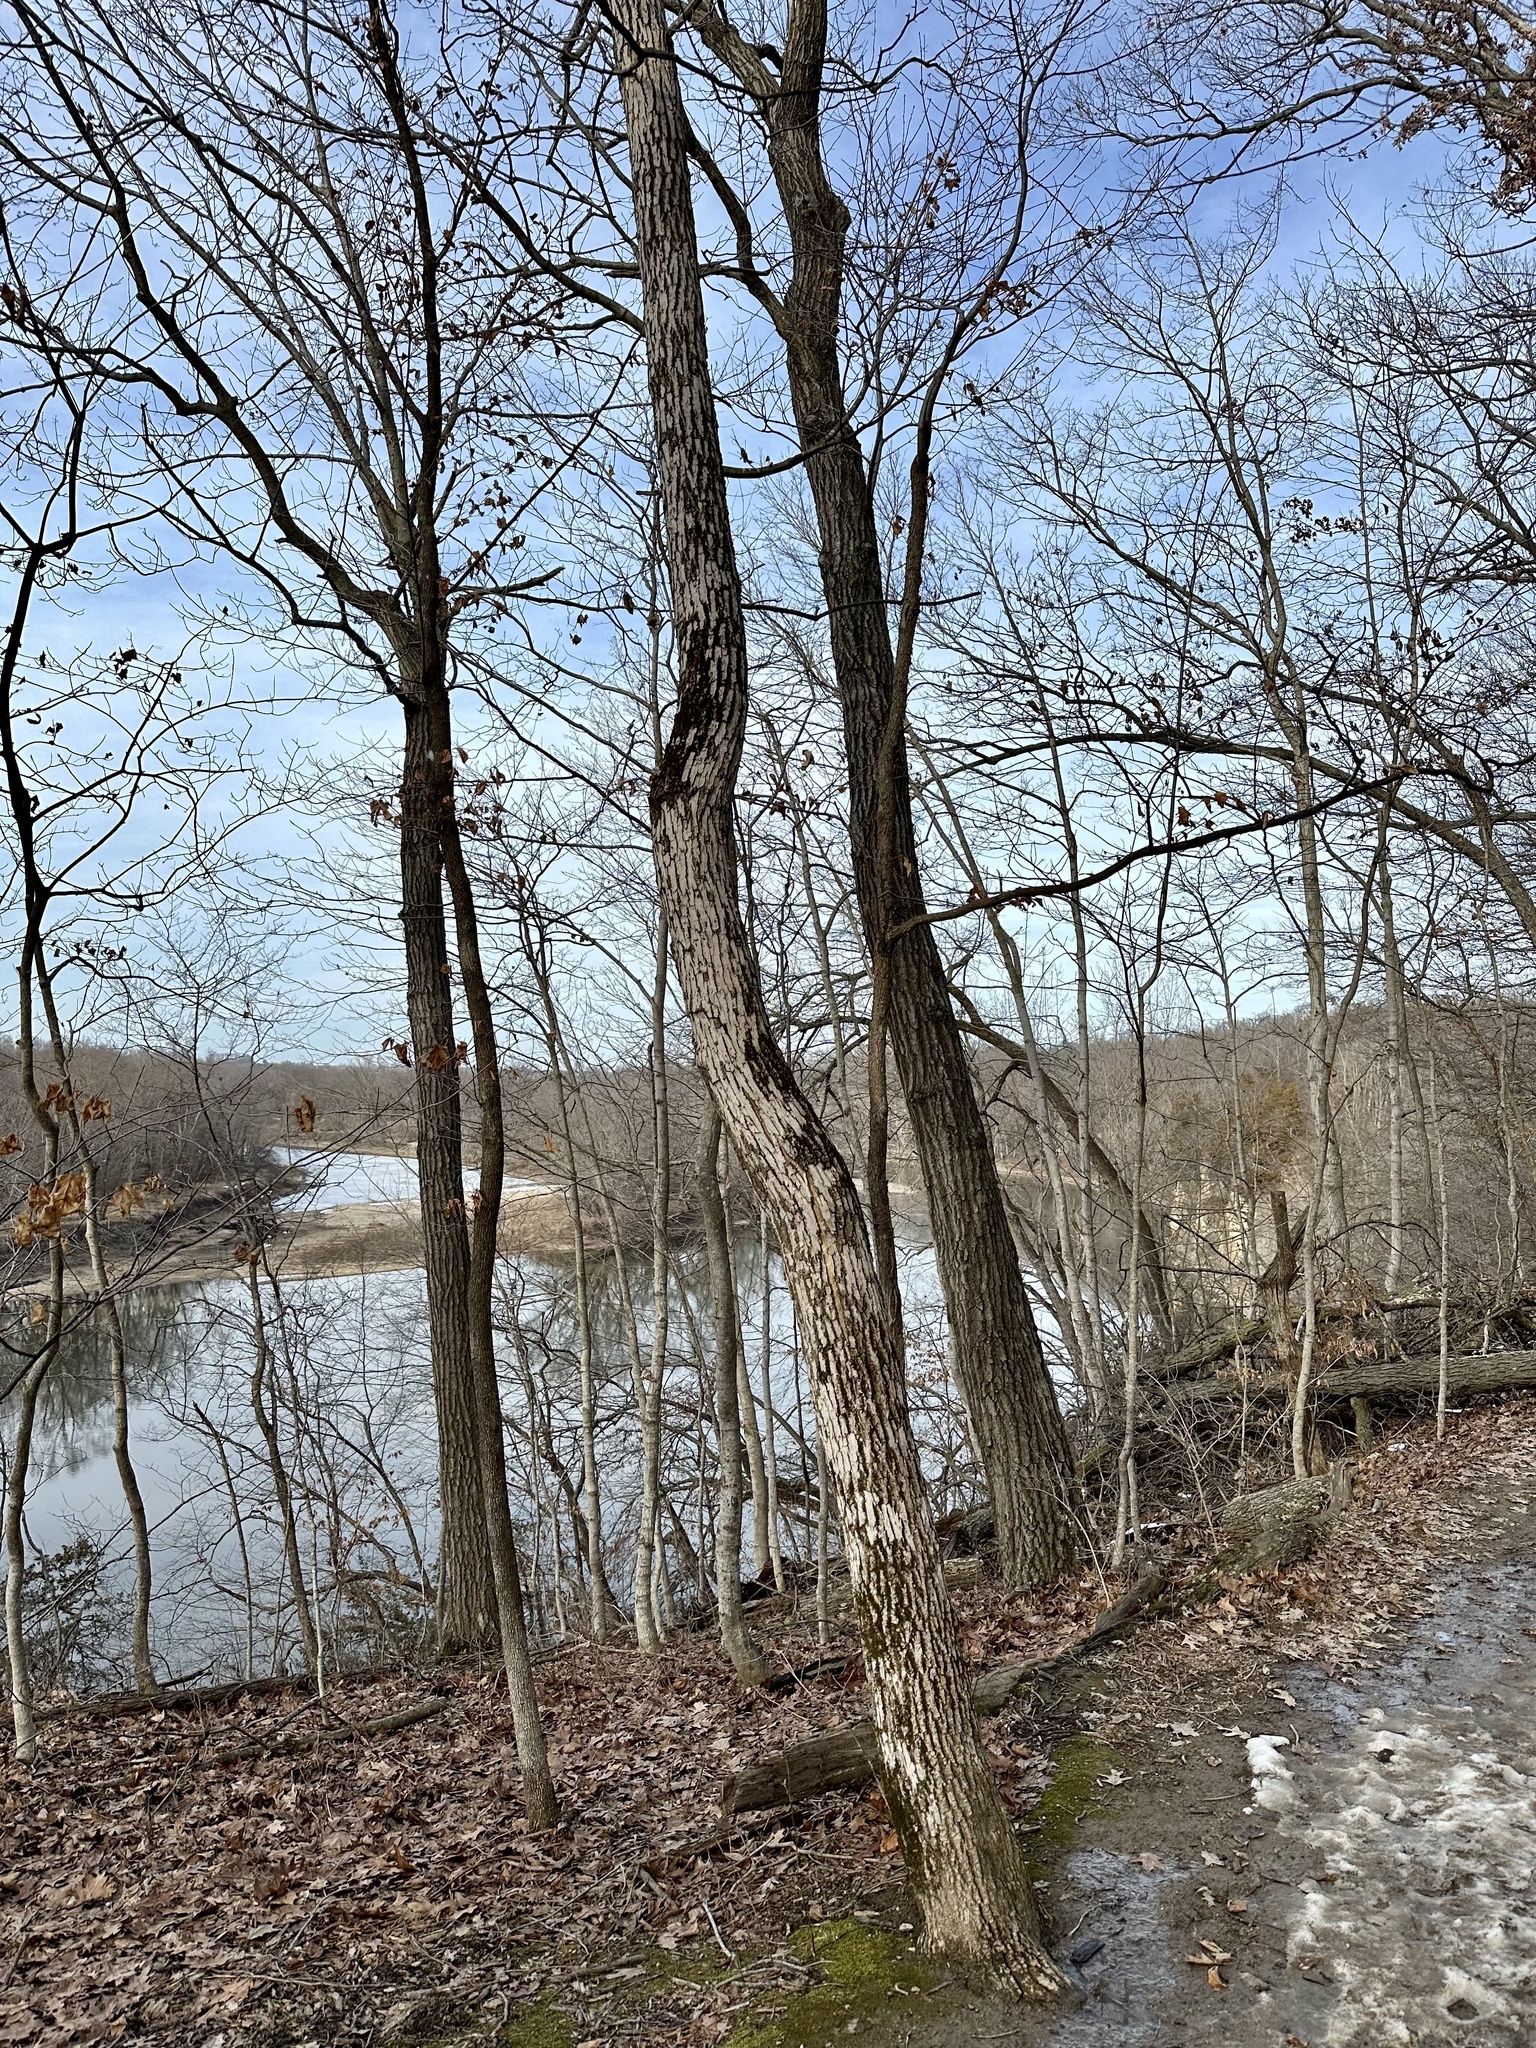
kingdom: Animalia
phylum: Arthropoda
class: Insecta
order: Coleoptera
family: Buprestidae
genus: Agrilus
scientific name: Agrilus planipennis
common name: Emerald ash borer
